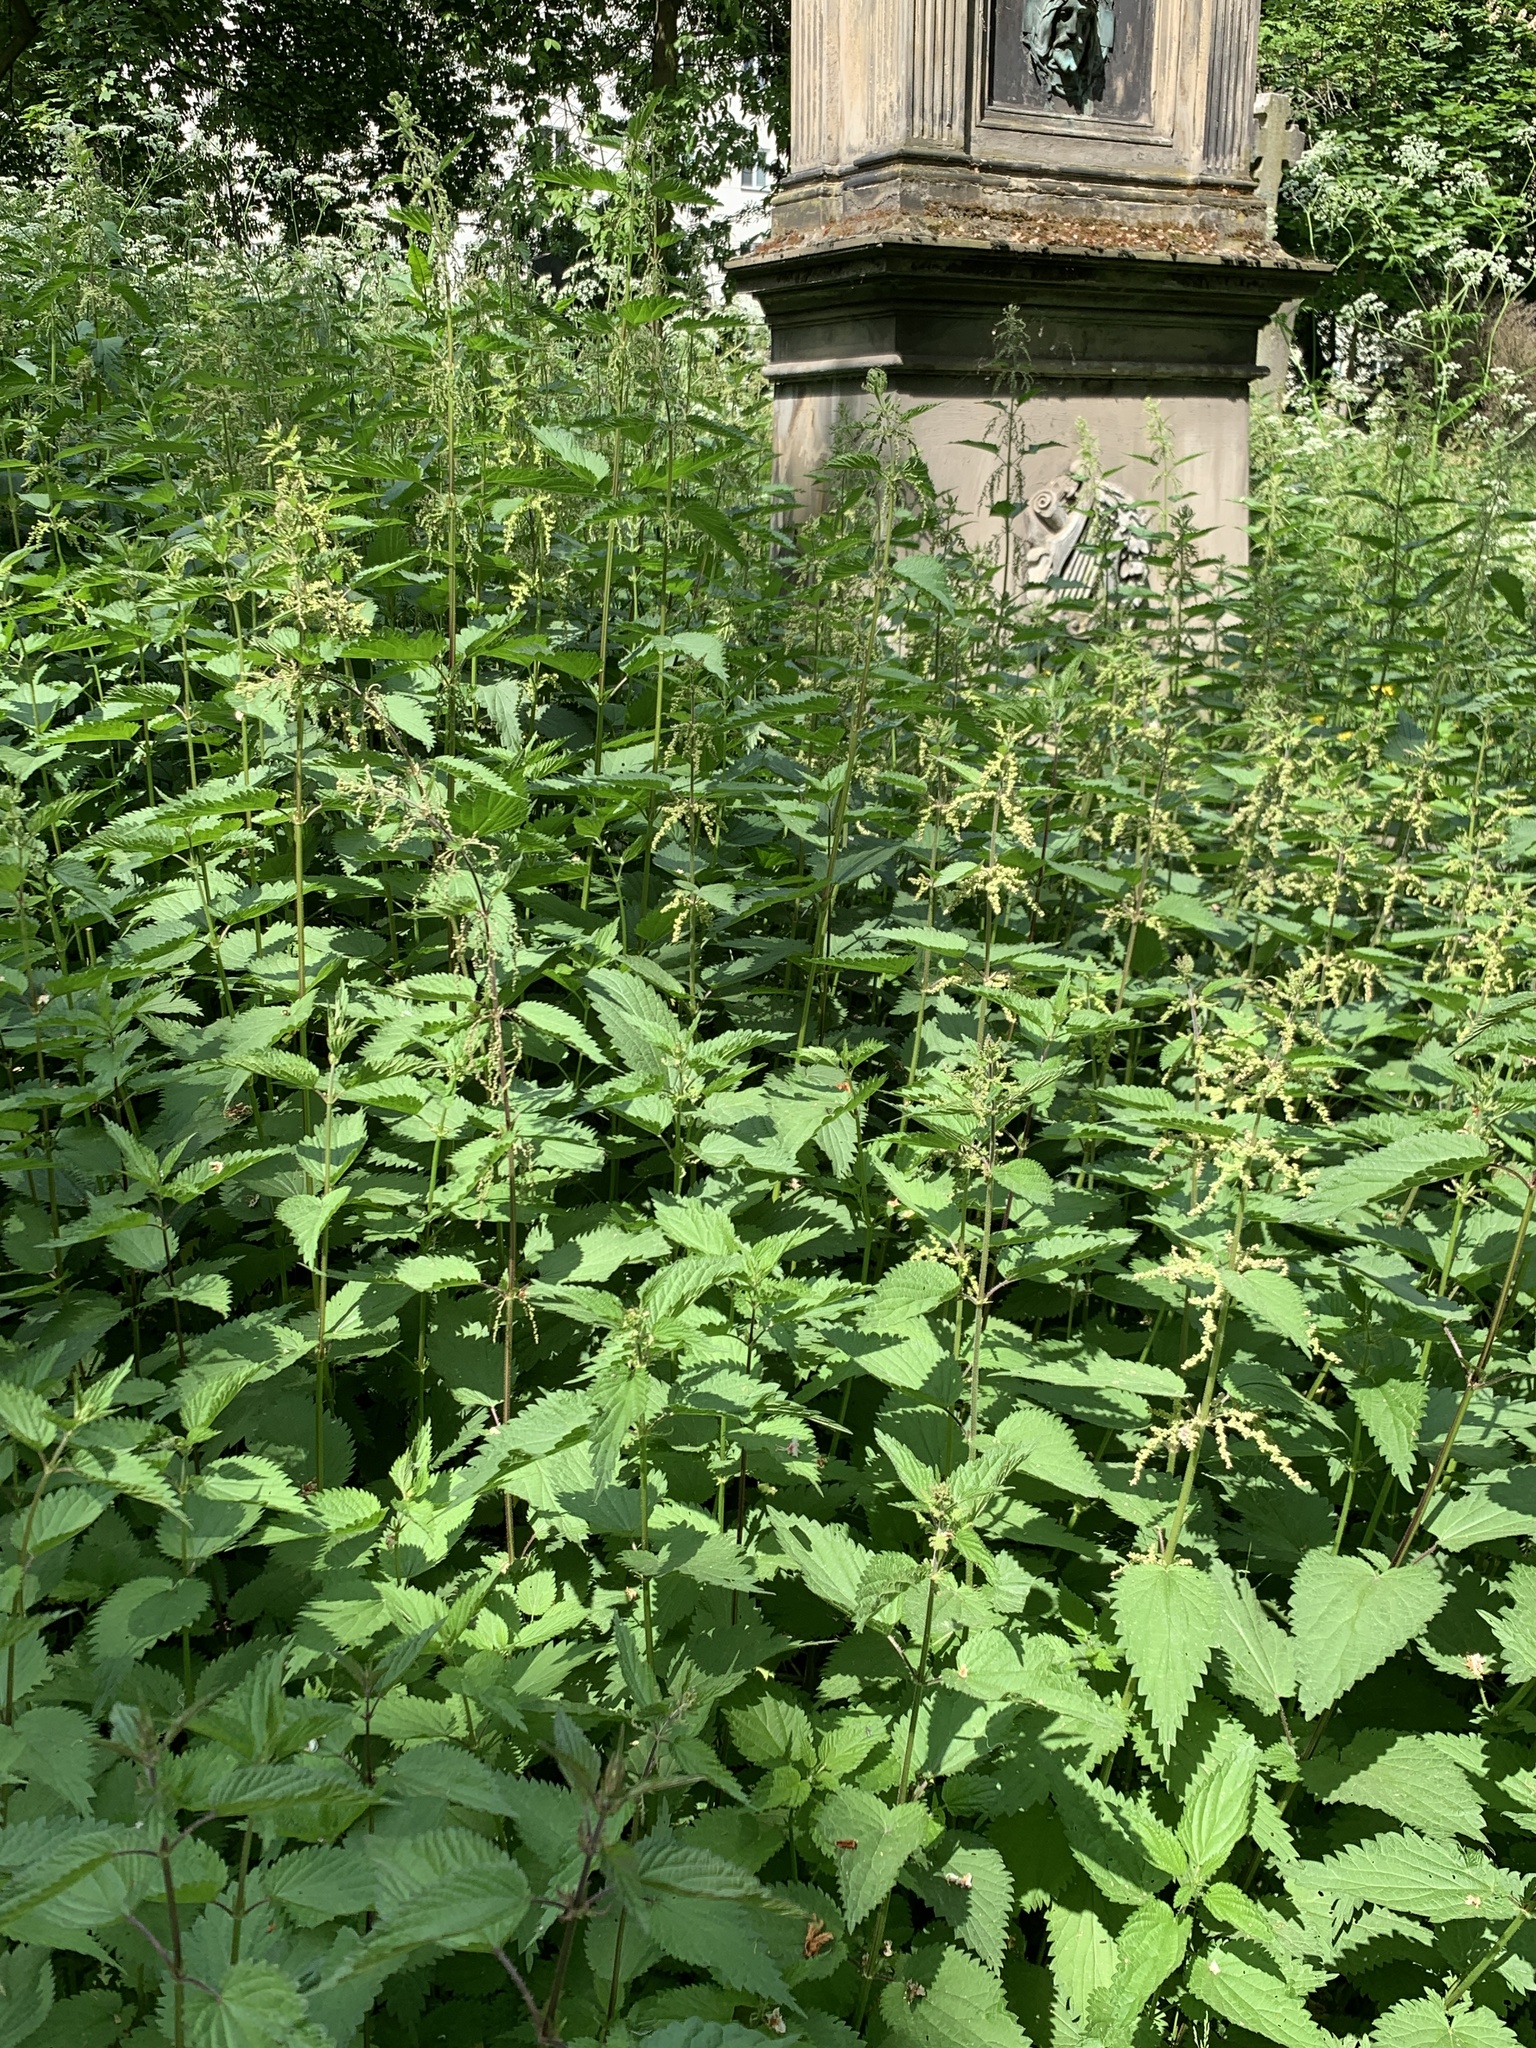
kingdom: Plantae
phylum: Tracheophyta
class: Magnoliopsida
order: Rosales
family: Urticaceae
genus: Urtica
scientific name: Urtica dioica
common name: Common nettle
